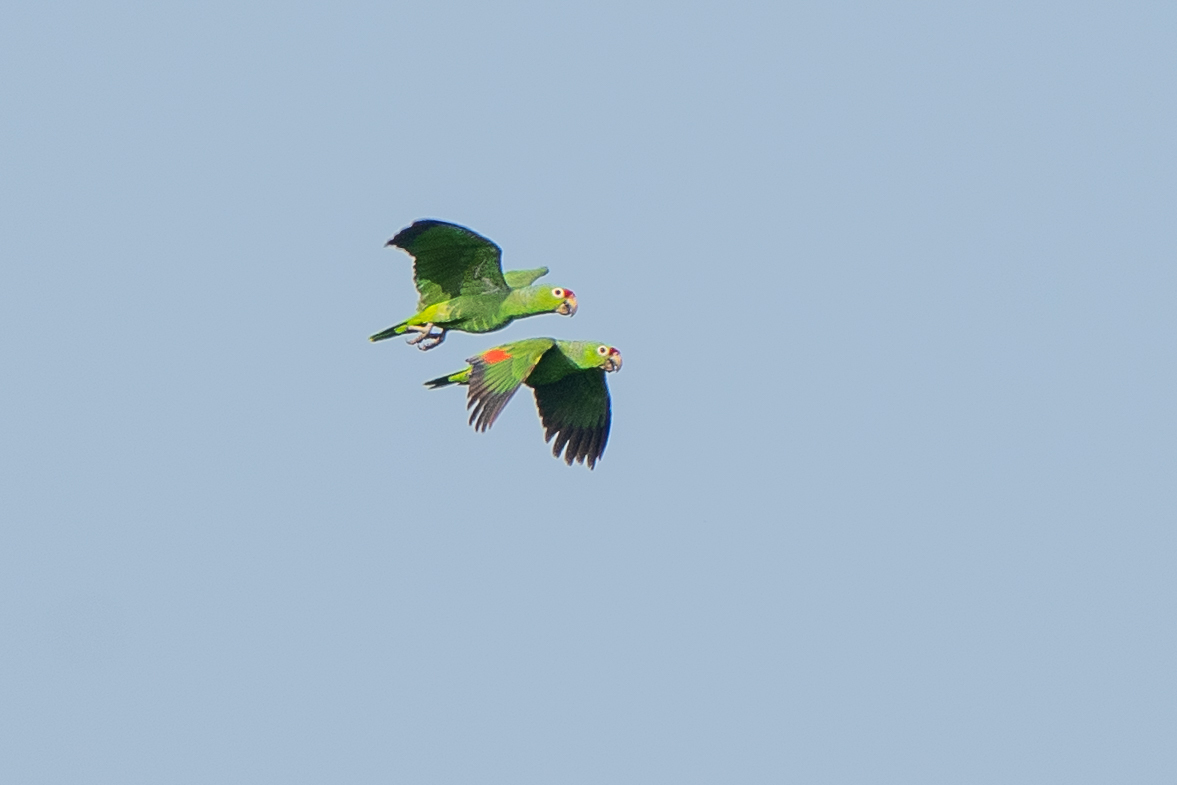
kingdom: Animalia
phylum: Chordata
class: Aves
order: Psittaciformes
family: Psittacidae
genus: Amazona
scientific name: Amazona autumnalis
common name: Red-lored amazon
